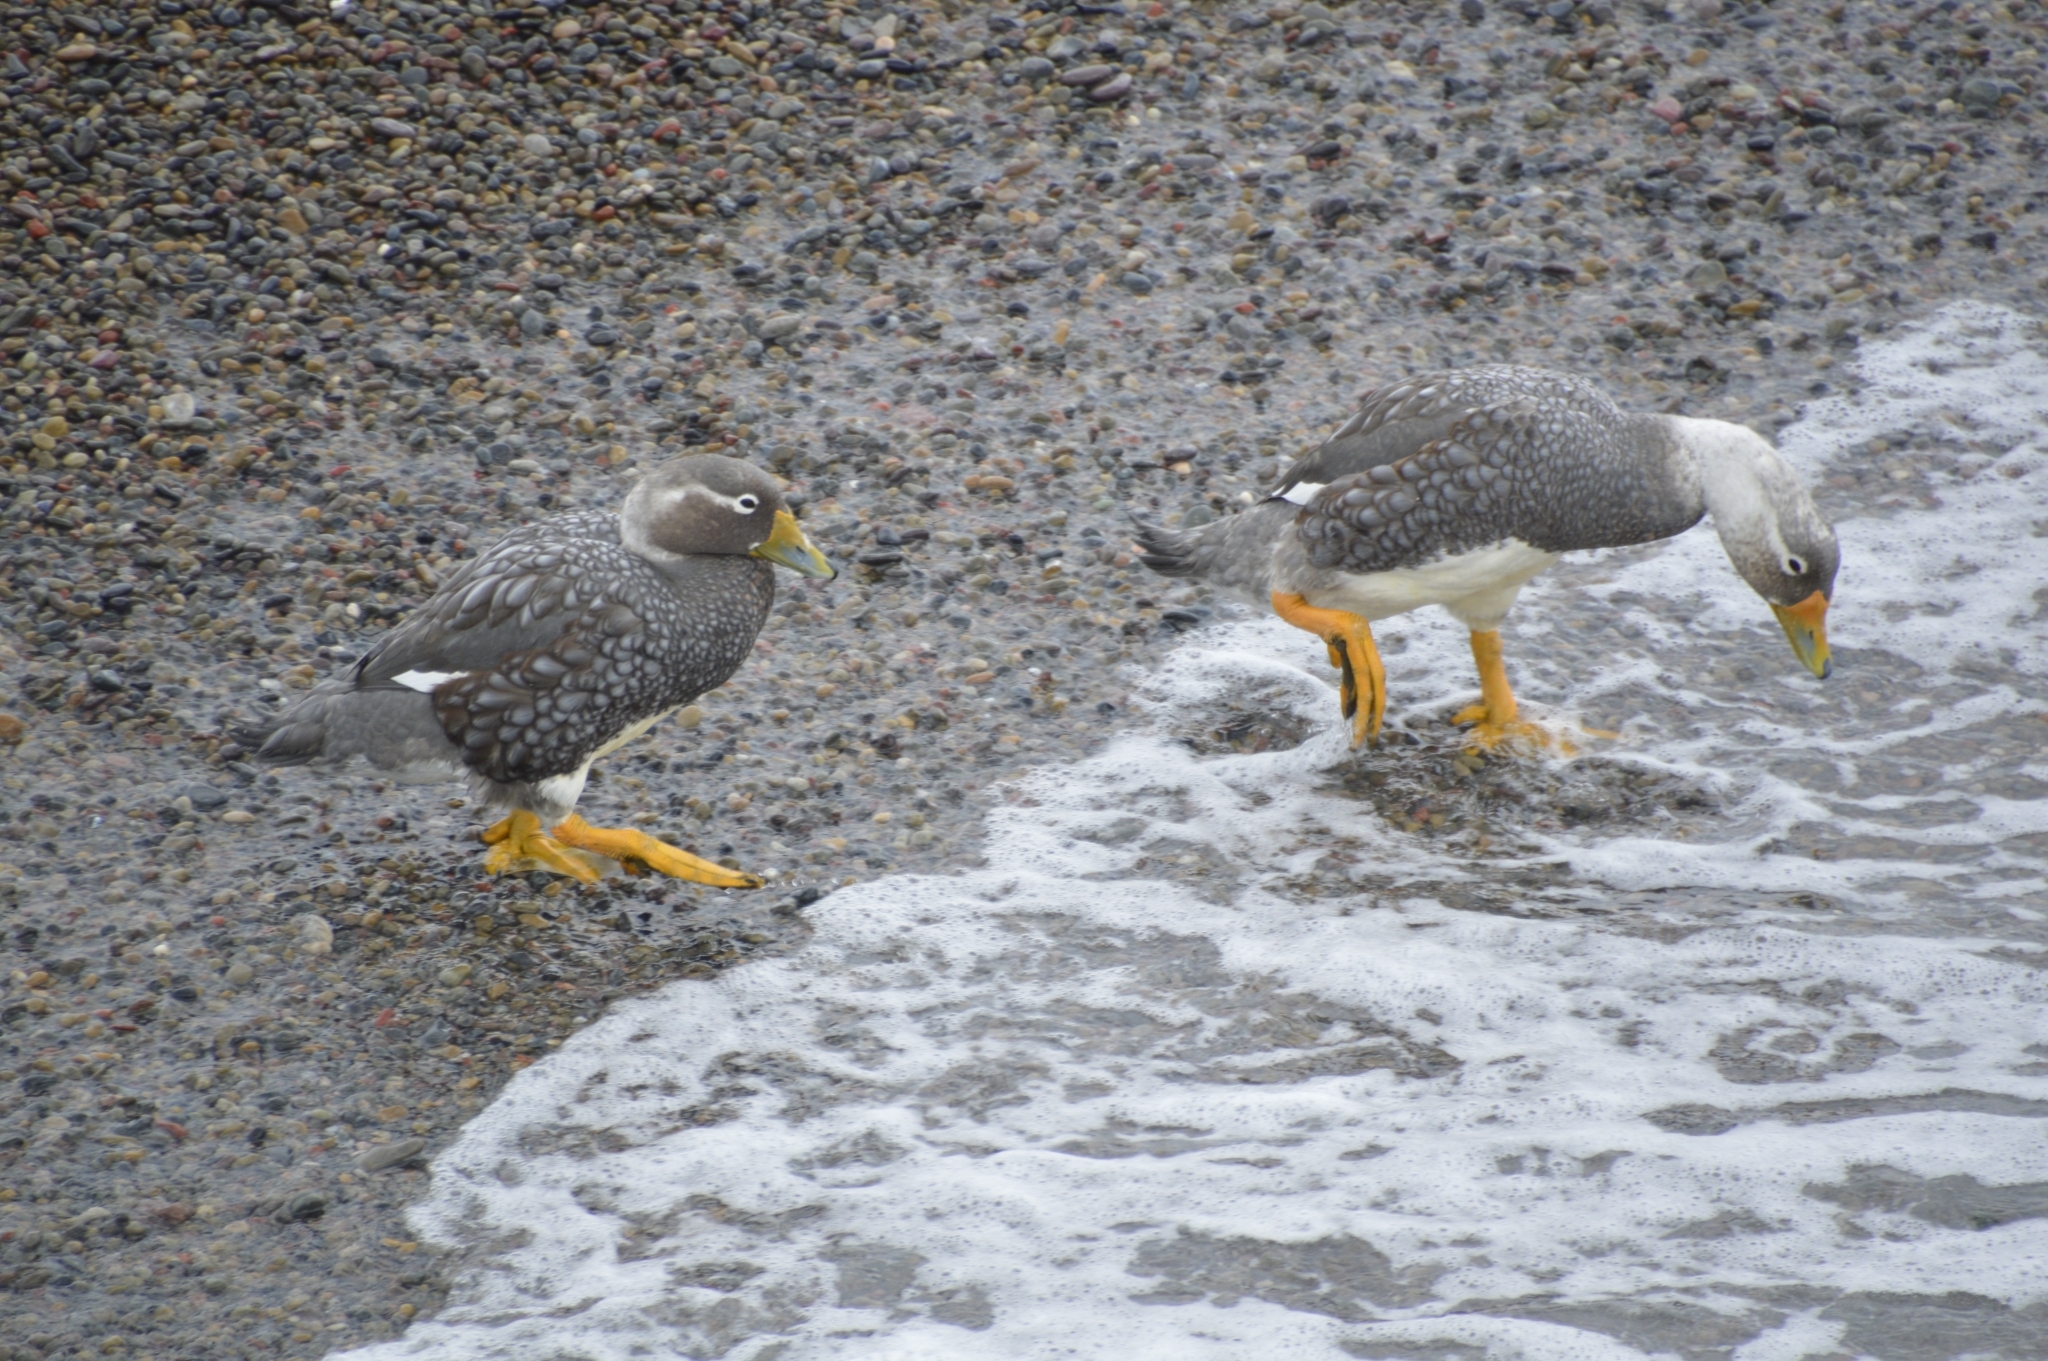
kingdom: Animalia
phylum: Chordata
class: Aves
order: Anseriformes
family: Anatidae
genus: Tachyeres
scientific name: Tachyeres patachonicus
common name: Flying steamer duck
